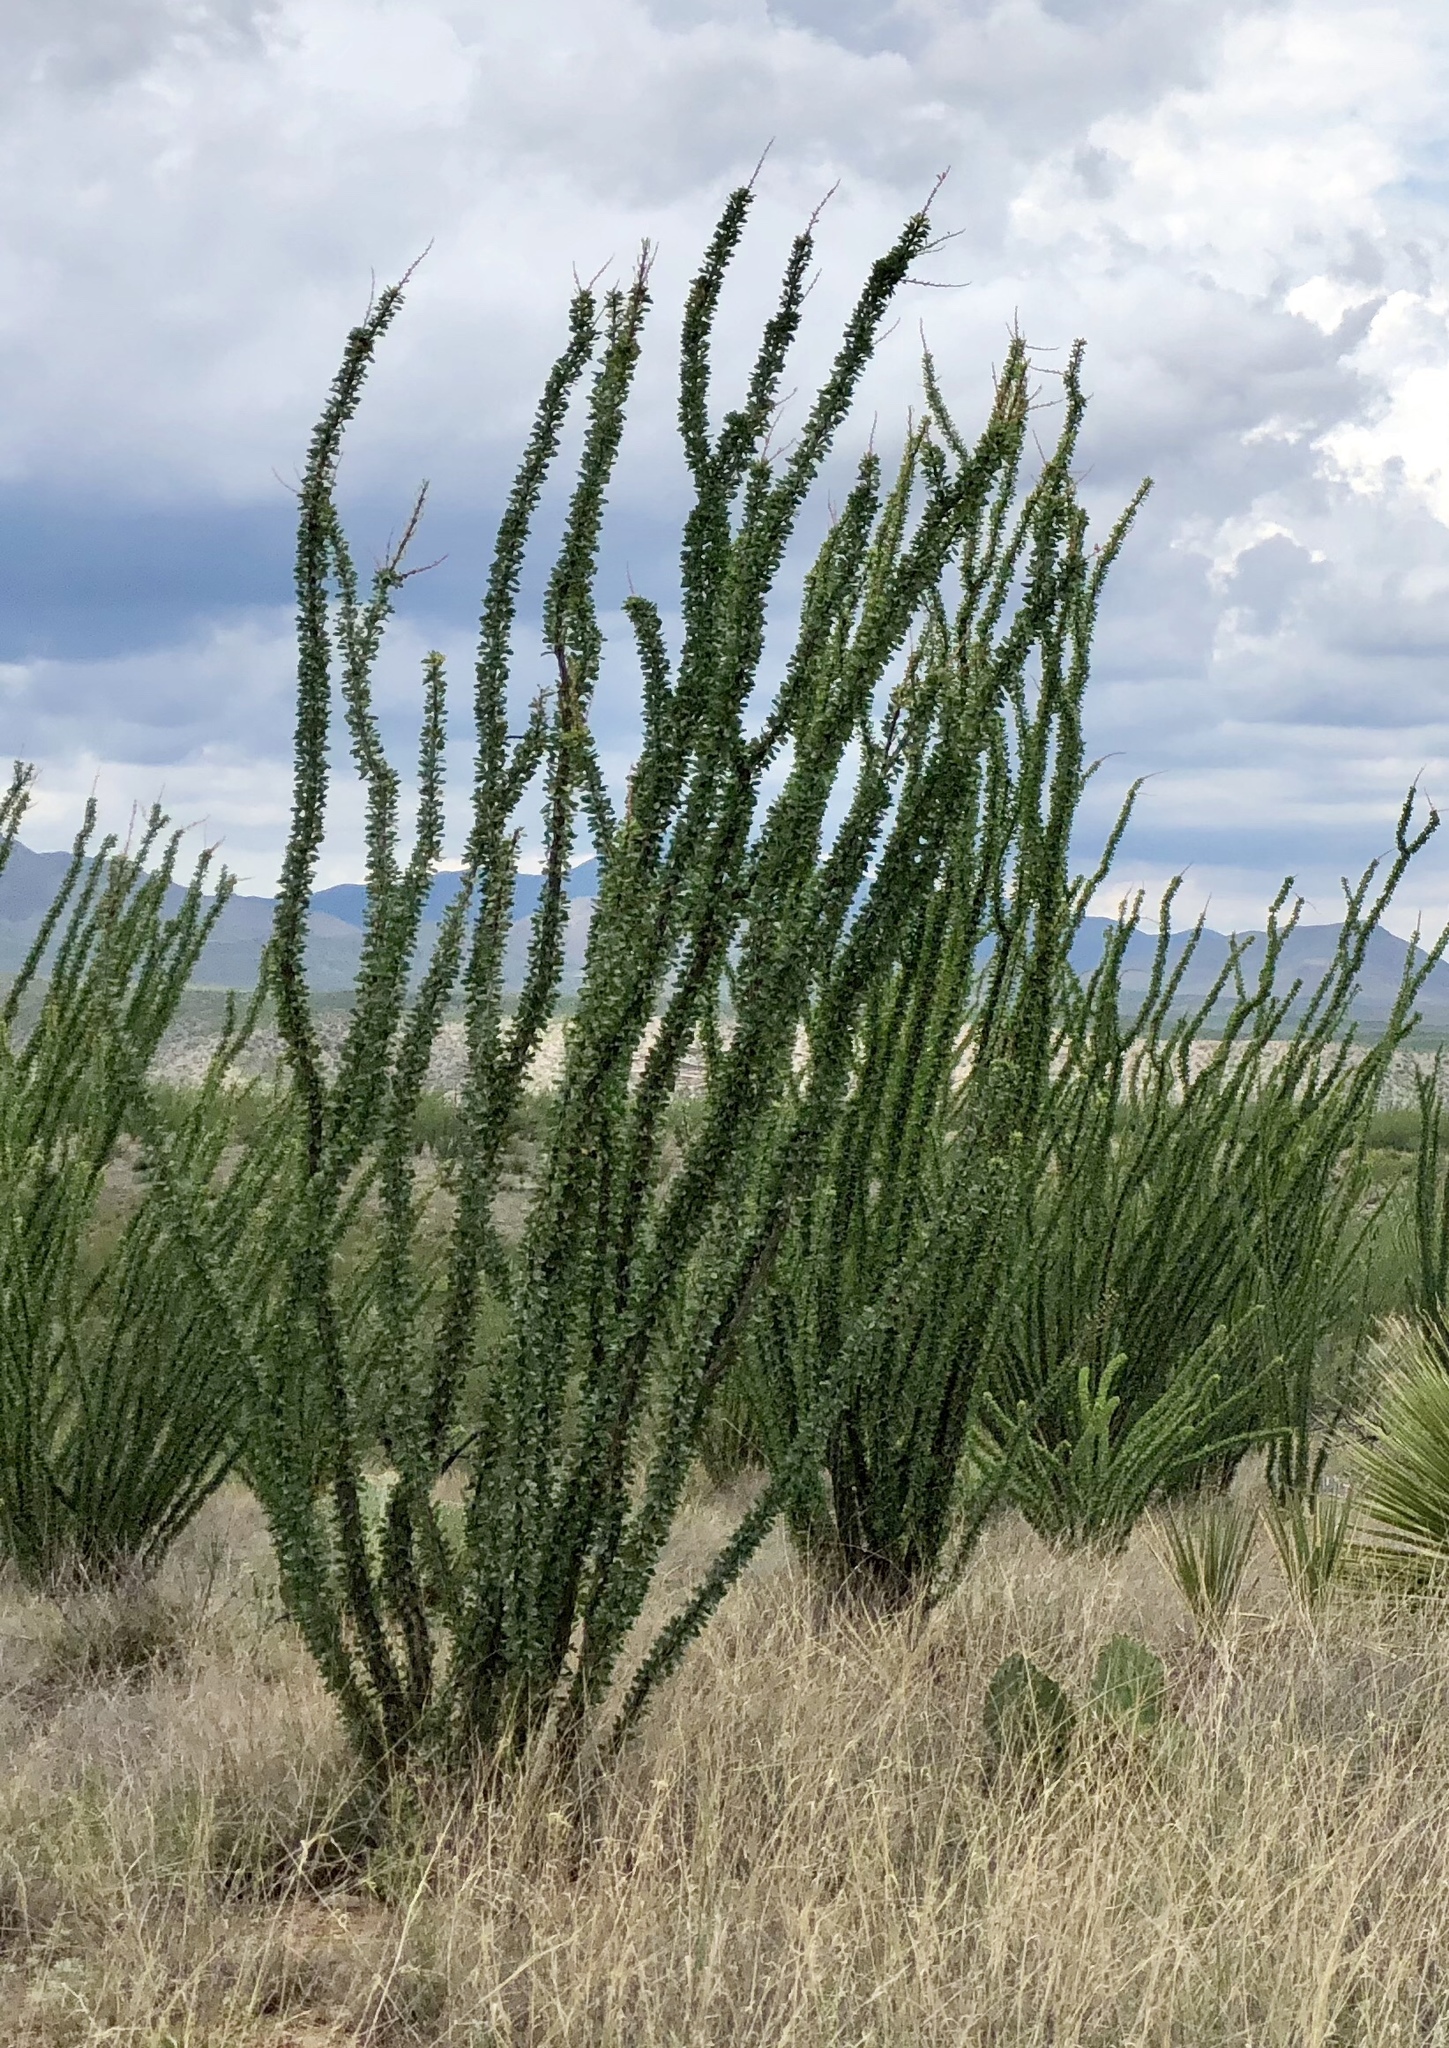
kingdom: Plantae
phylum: Tracheophyta
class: Magnoliopsida
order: Ericales
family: Fouquieriaceae
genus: Fouquieria
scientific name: Fouquieria splendens
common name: Vine-cactus
